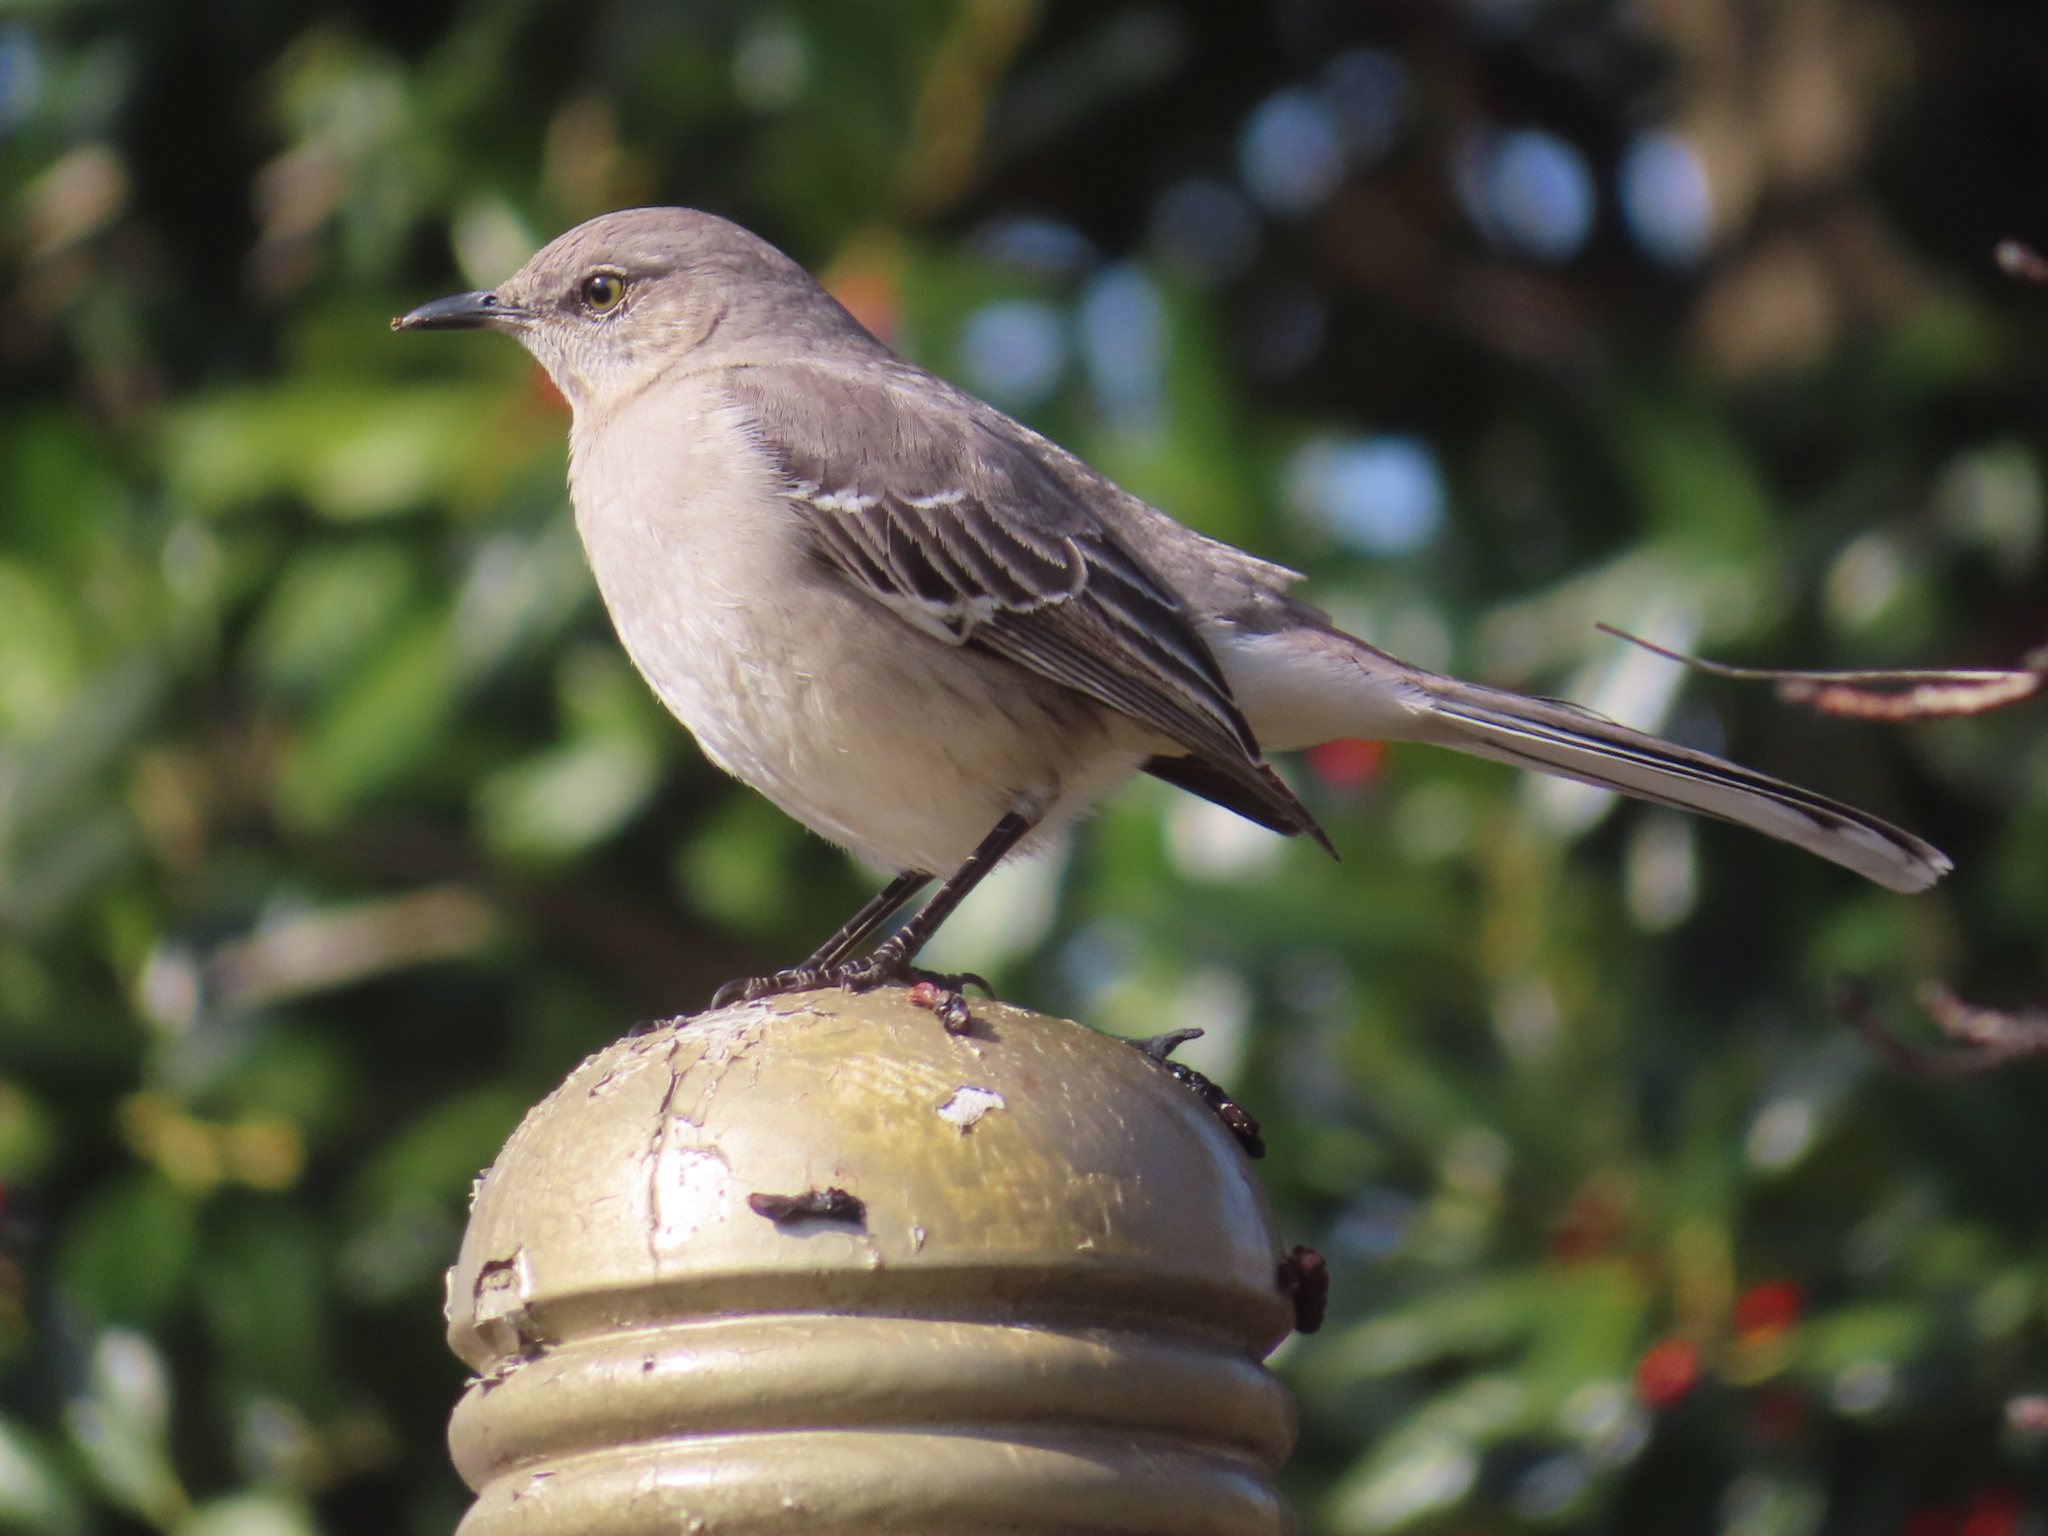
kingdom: Animalia
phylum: Chordata
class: Aves
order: Passeriformes
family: Mimidae
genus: Mimus
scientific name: Mimus polyglottos
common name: Northern mockingbird
